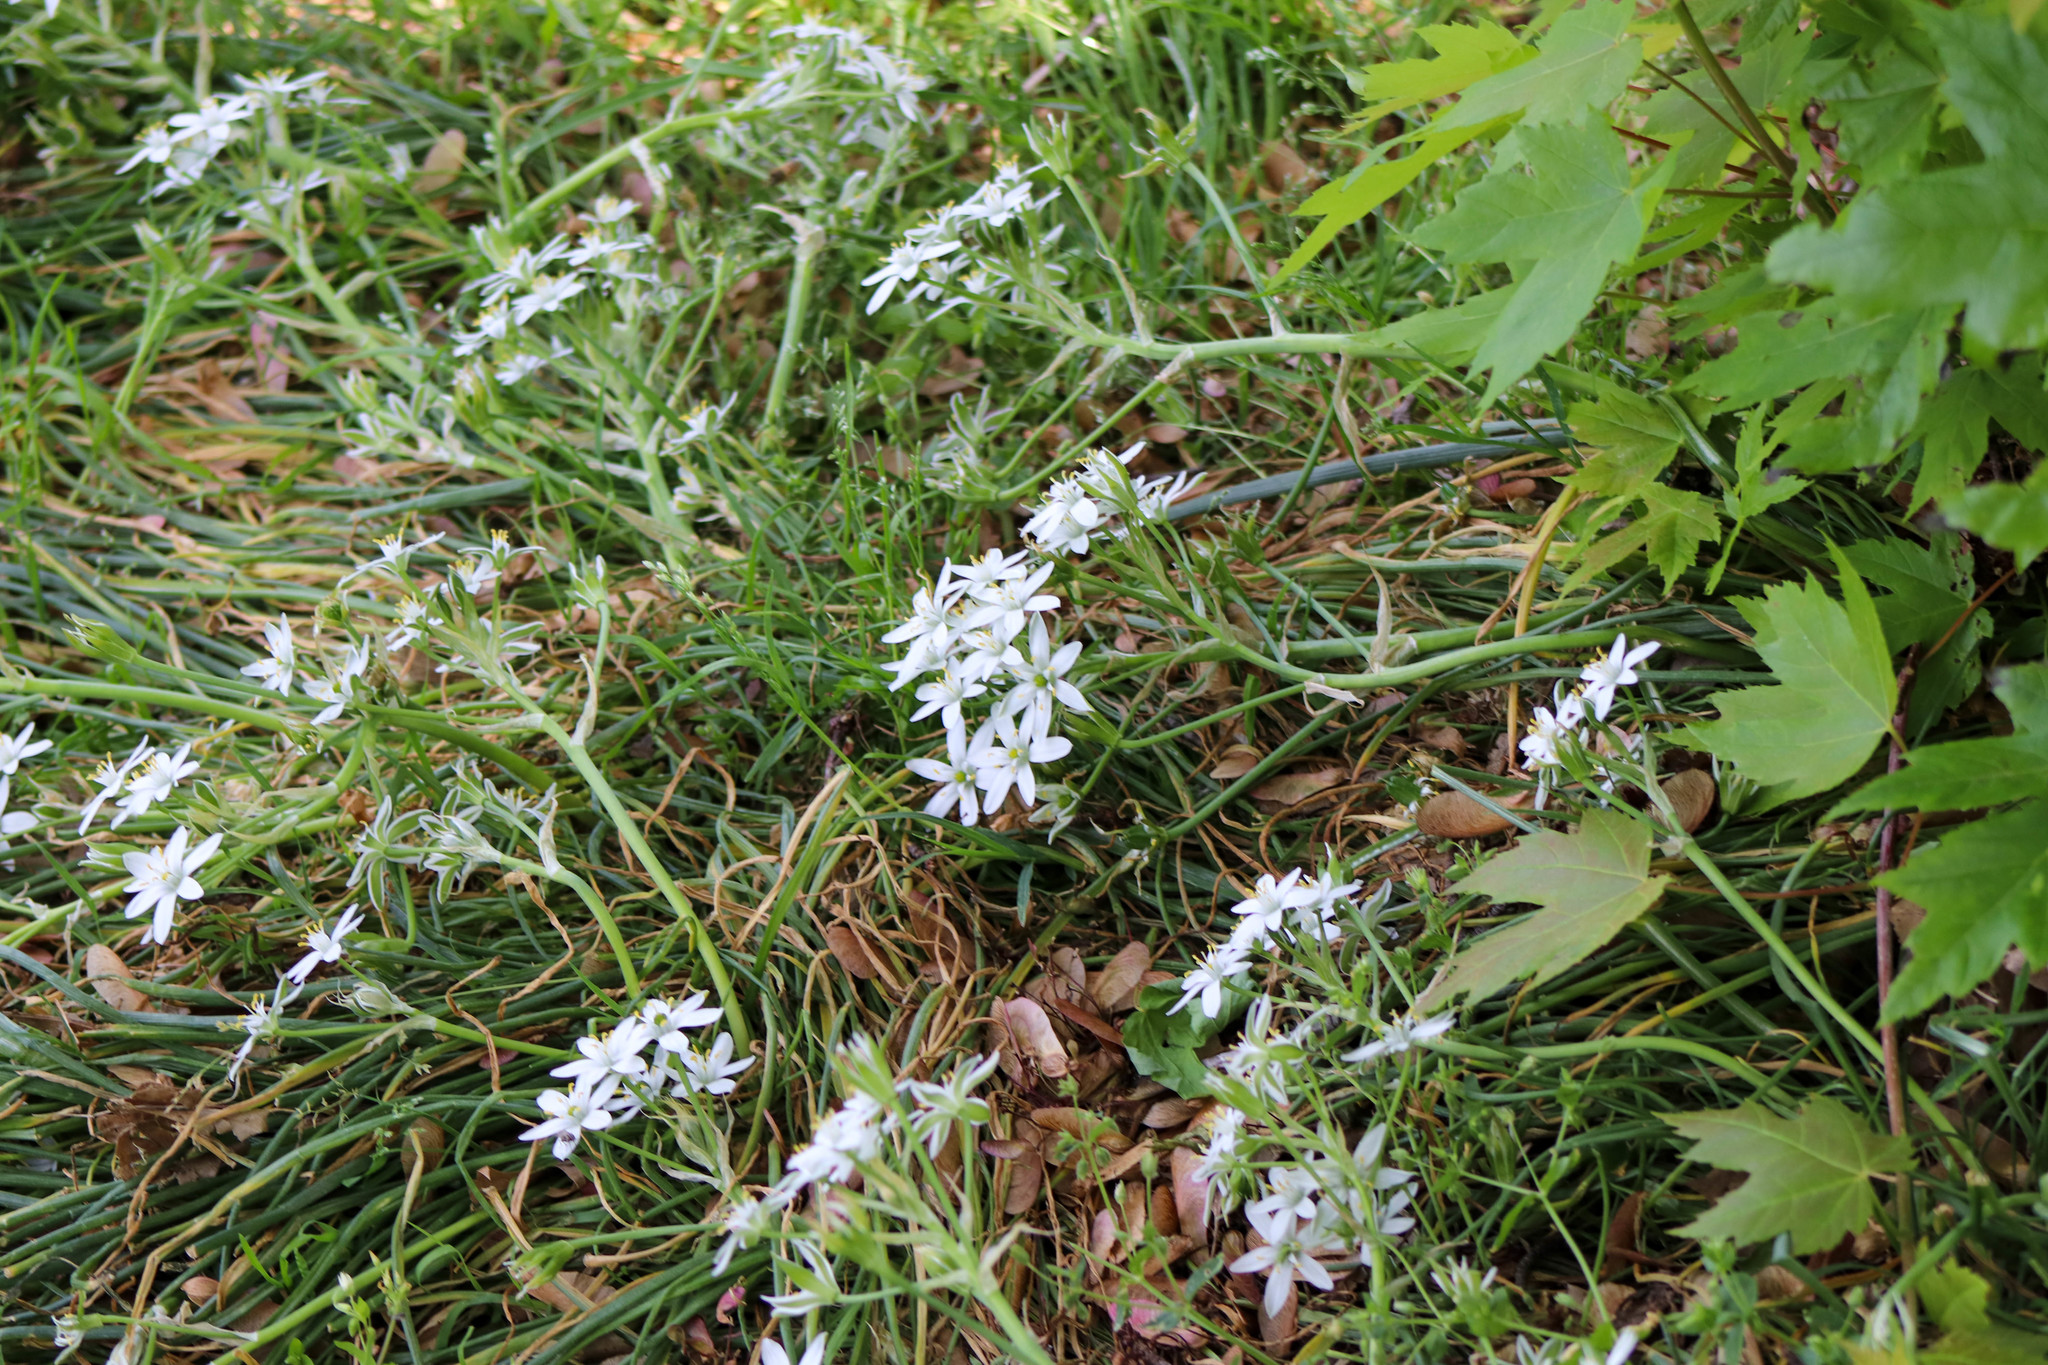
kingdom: Plantae
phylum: Tracheophyta
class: Liliopsida
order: Asparagales
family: Asparagaceae
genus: Ornithogalum
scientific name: Ornithogalum umbellatum
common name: Garden star-of-bethlehem
